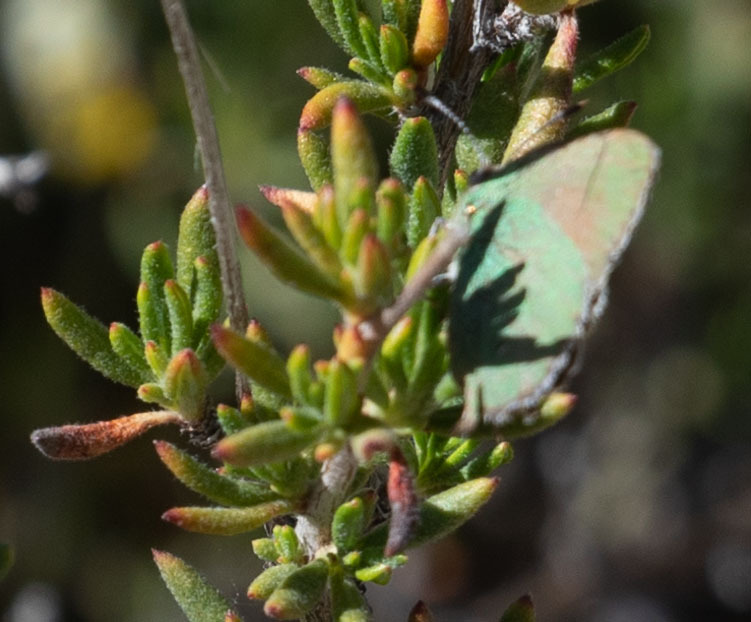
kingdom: Animalia
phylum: Arthropoda
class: Insecta
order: Lepidoptera
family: Lycaenidae
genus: Callophrys
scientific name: Callophrys dumetorum
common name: Bramble hairstreak
